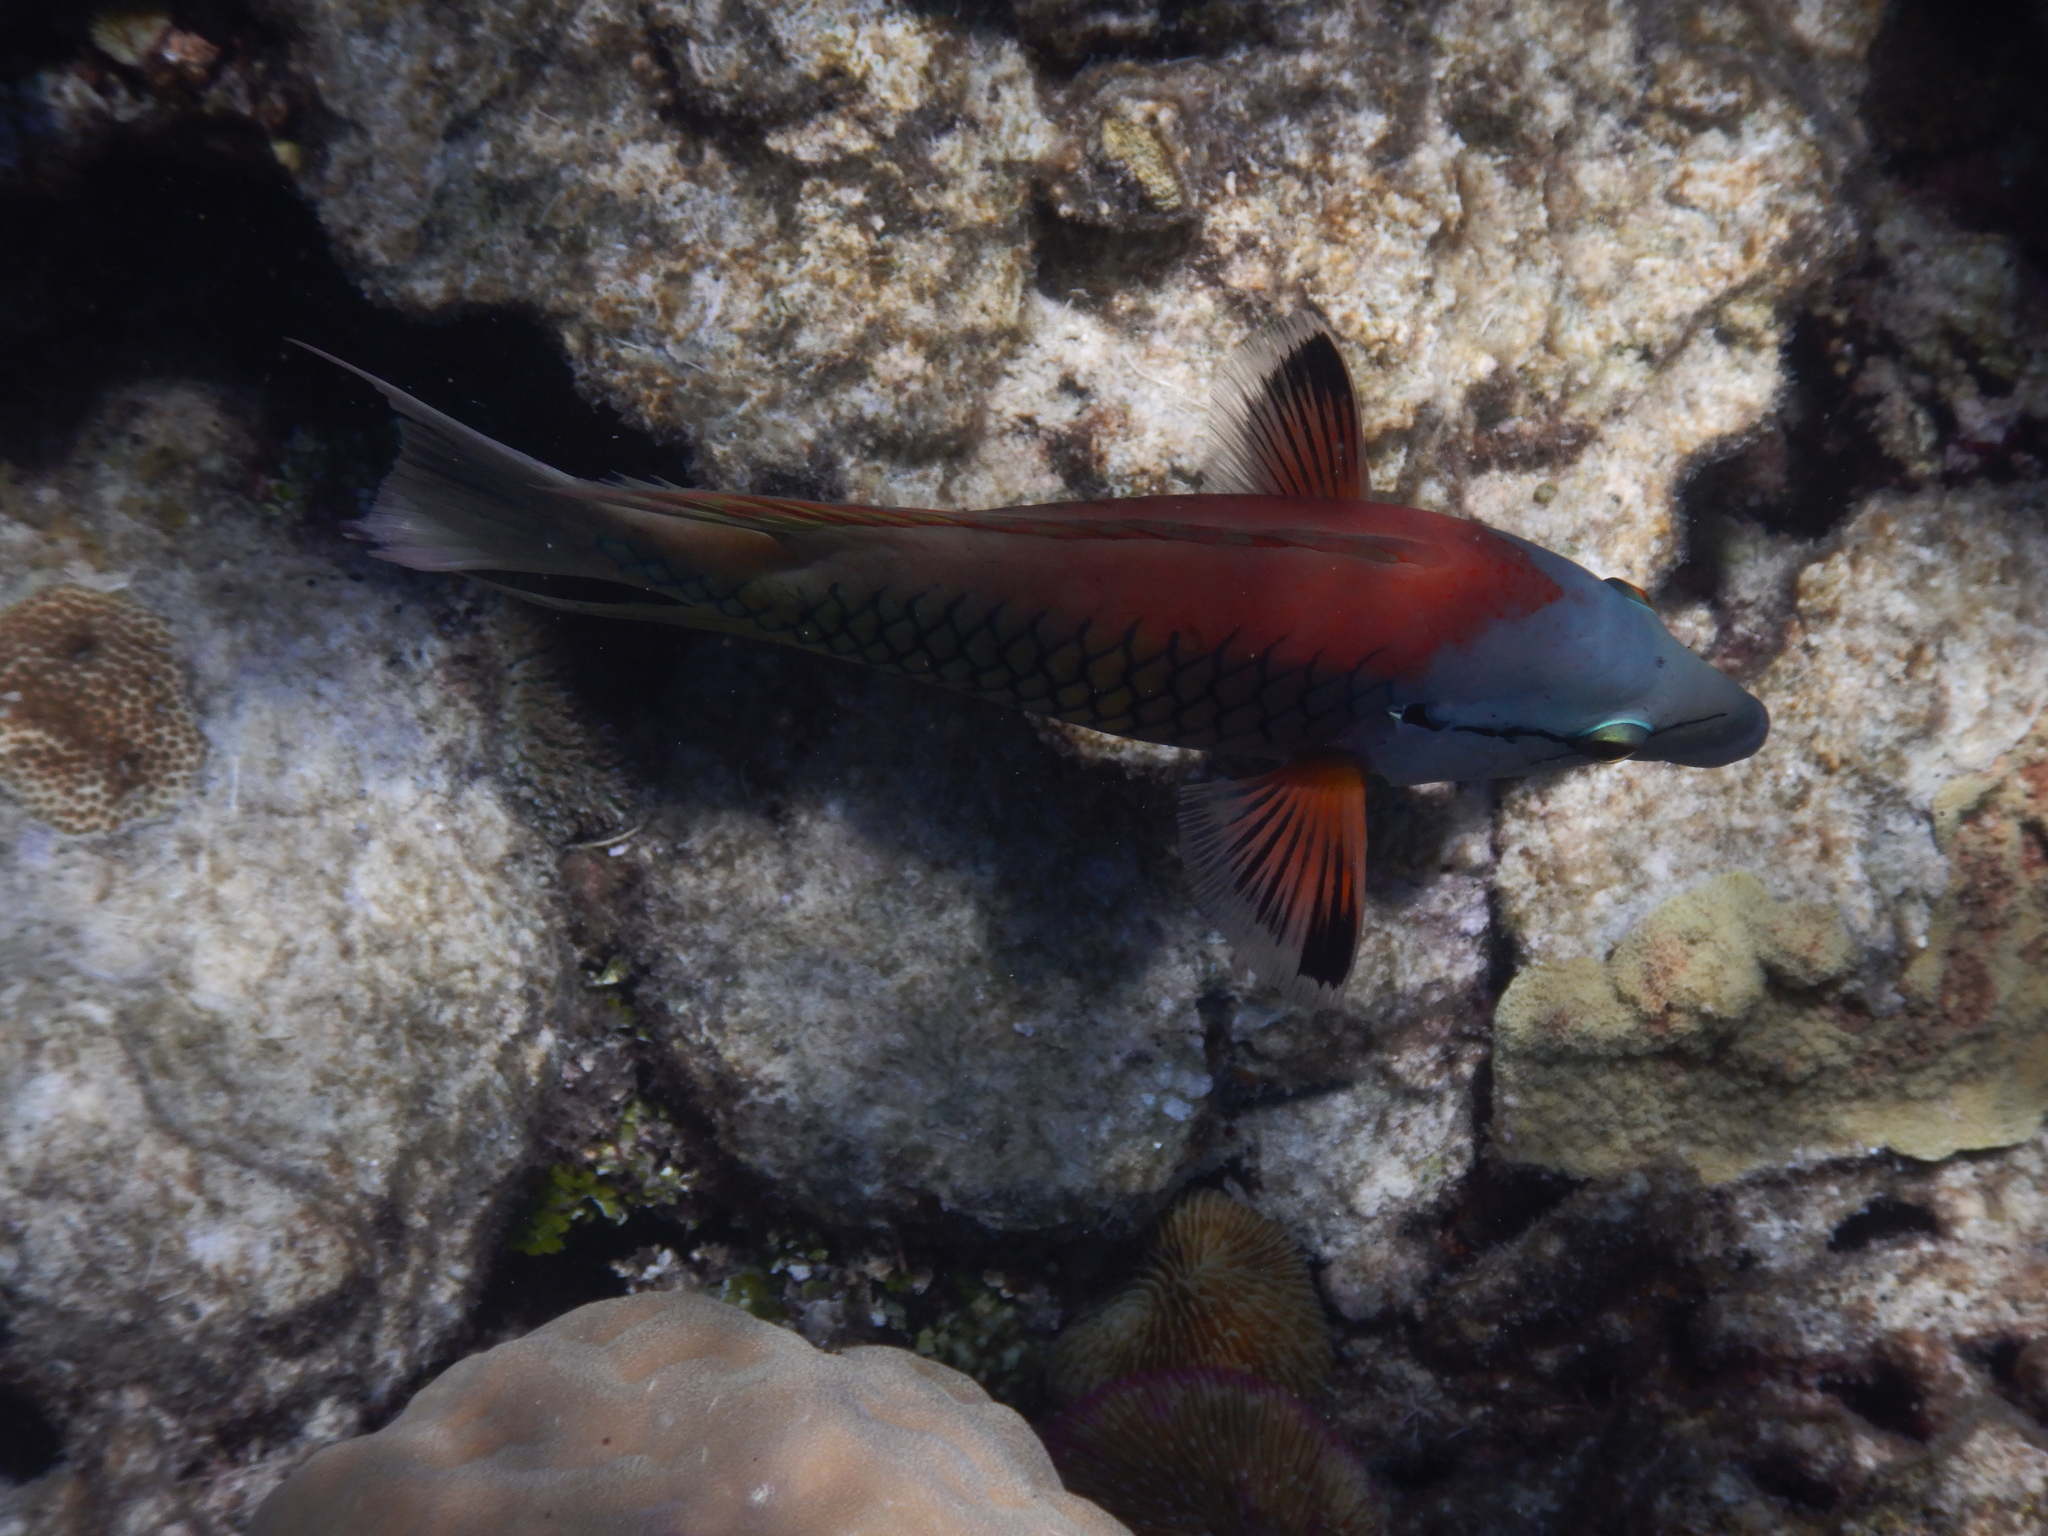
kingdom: Animalia
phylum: Chordata
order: Perciformes
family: Labridae
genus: Epibulus
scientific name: Epibulus insidiator
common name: Slingjaw wrasse
